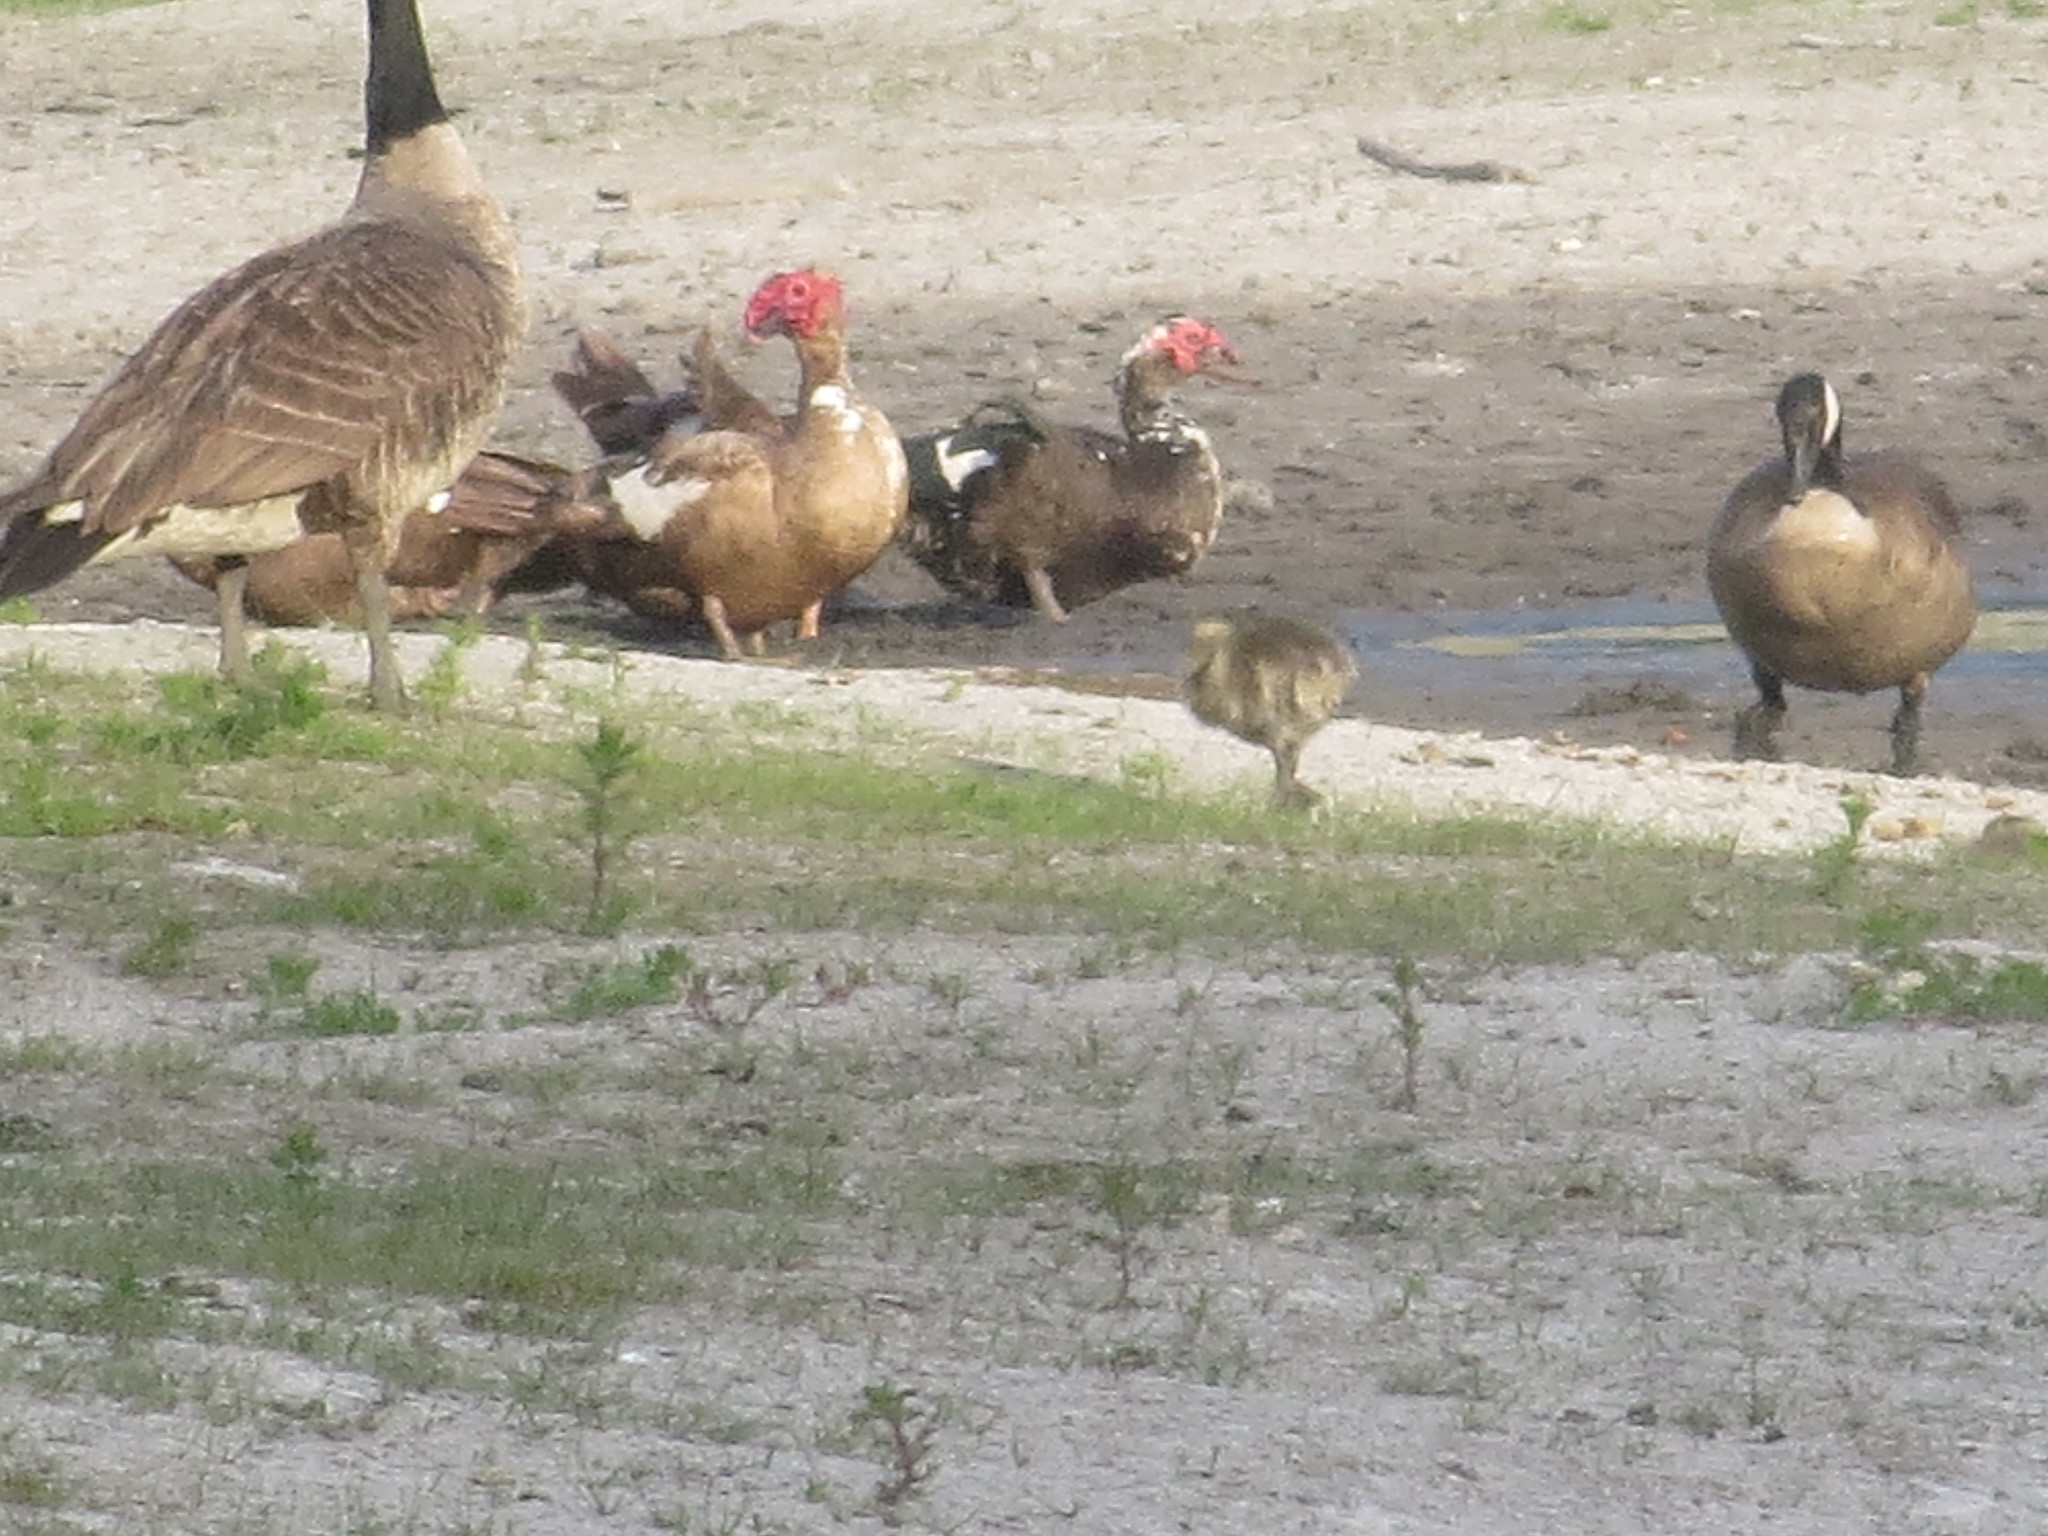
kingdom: Animalia
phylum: Chordata
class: Aves
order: Anseriformes
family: Anatidae
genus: Cairina
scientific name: Cairina moschata
